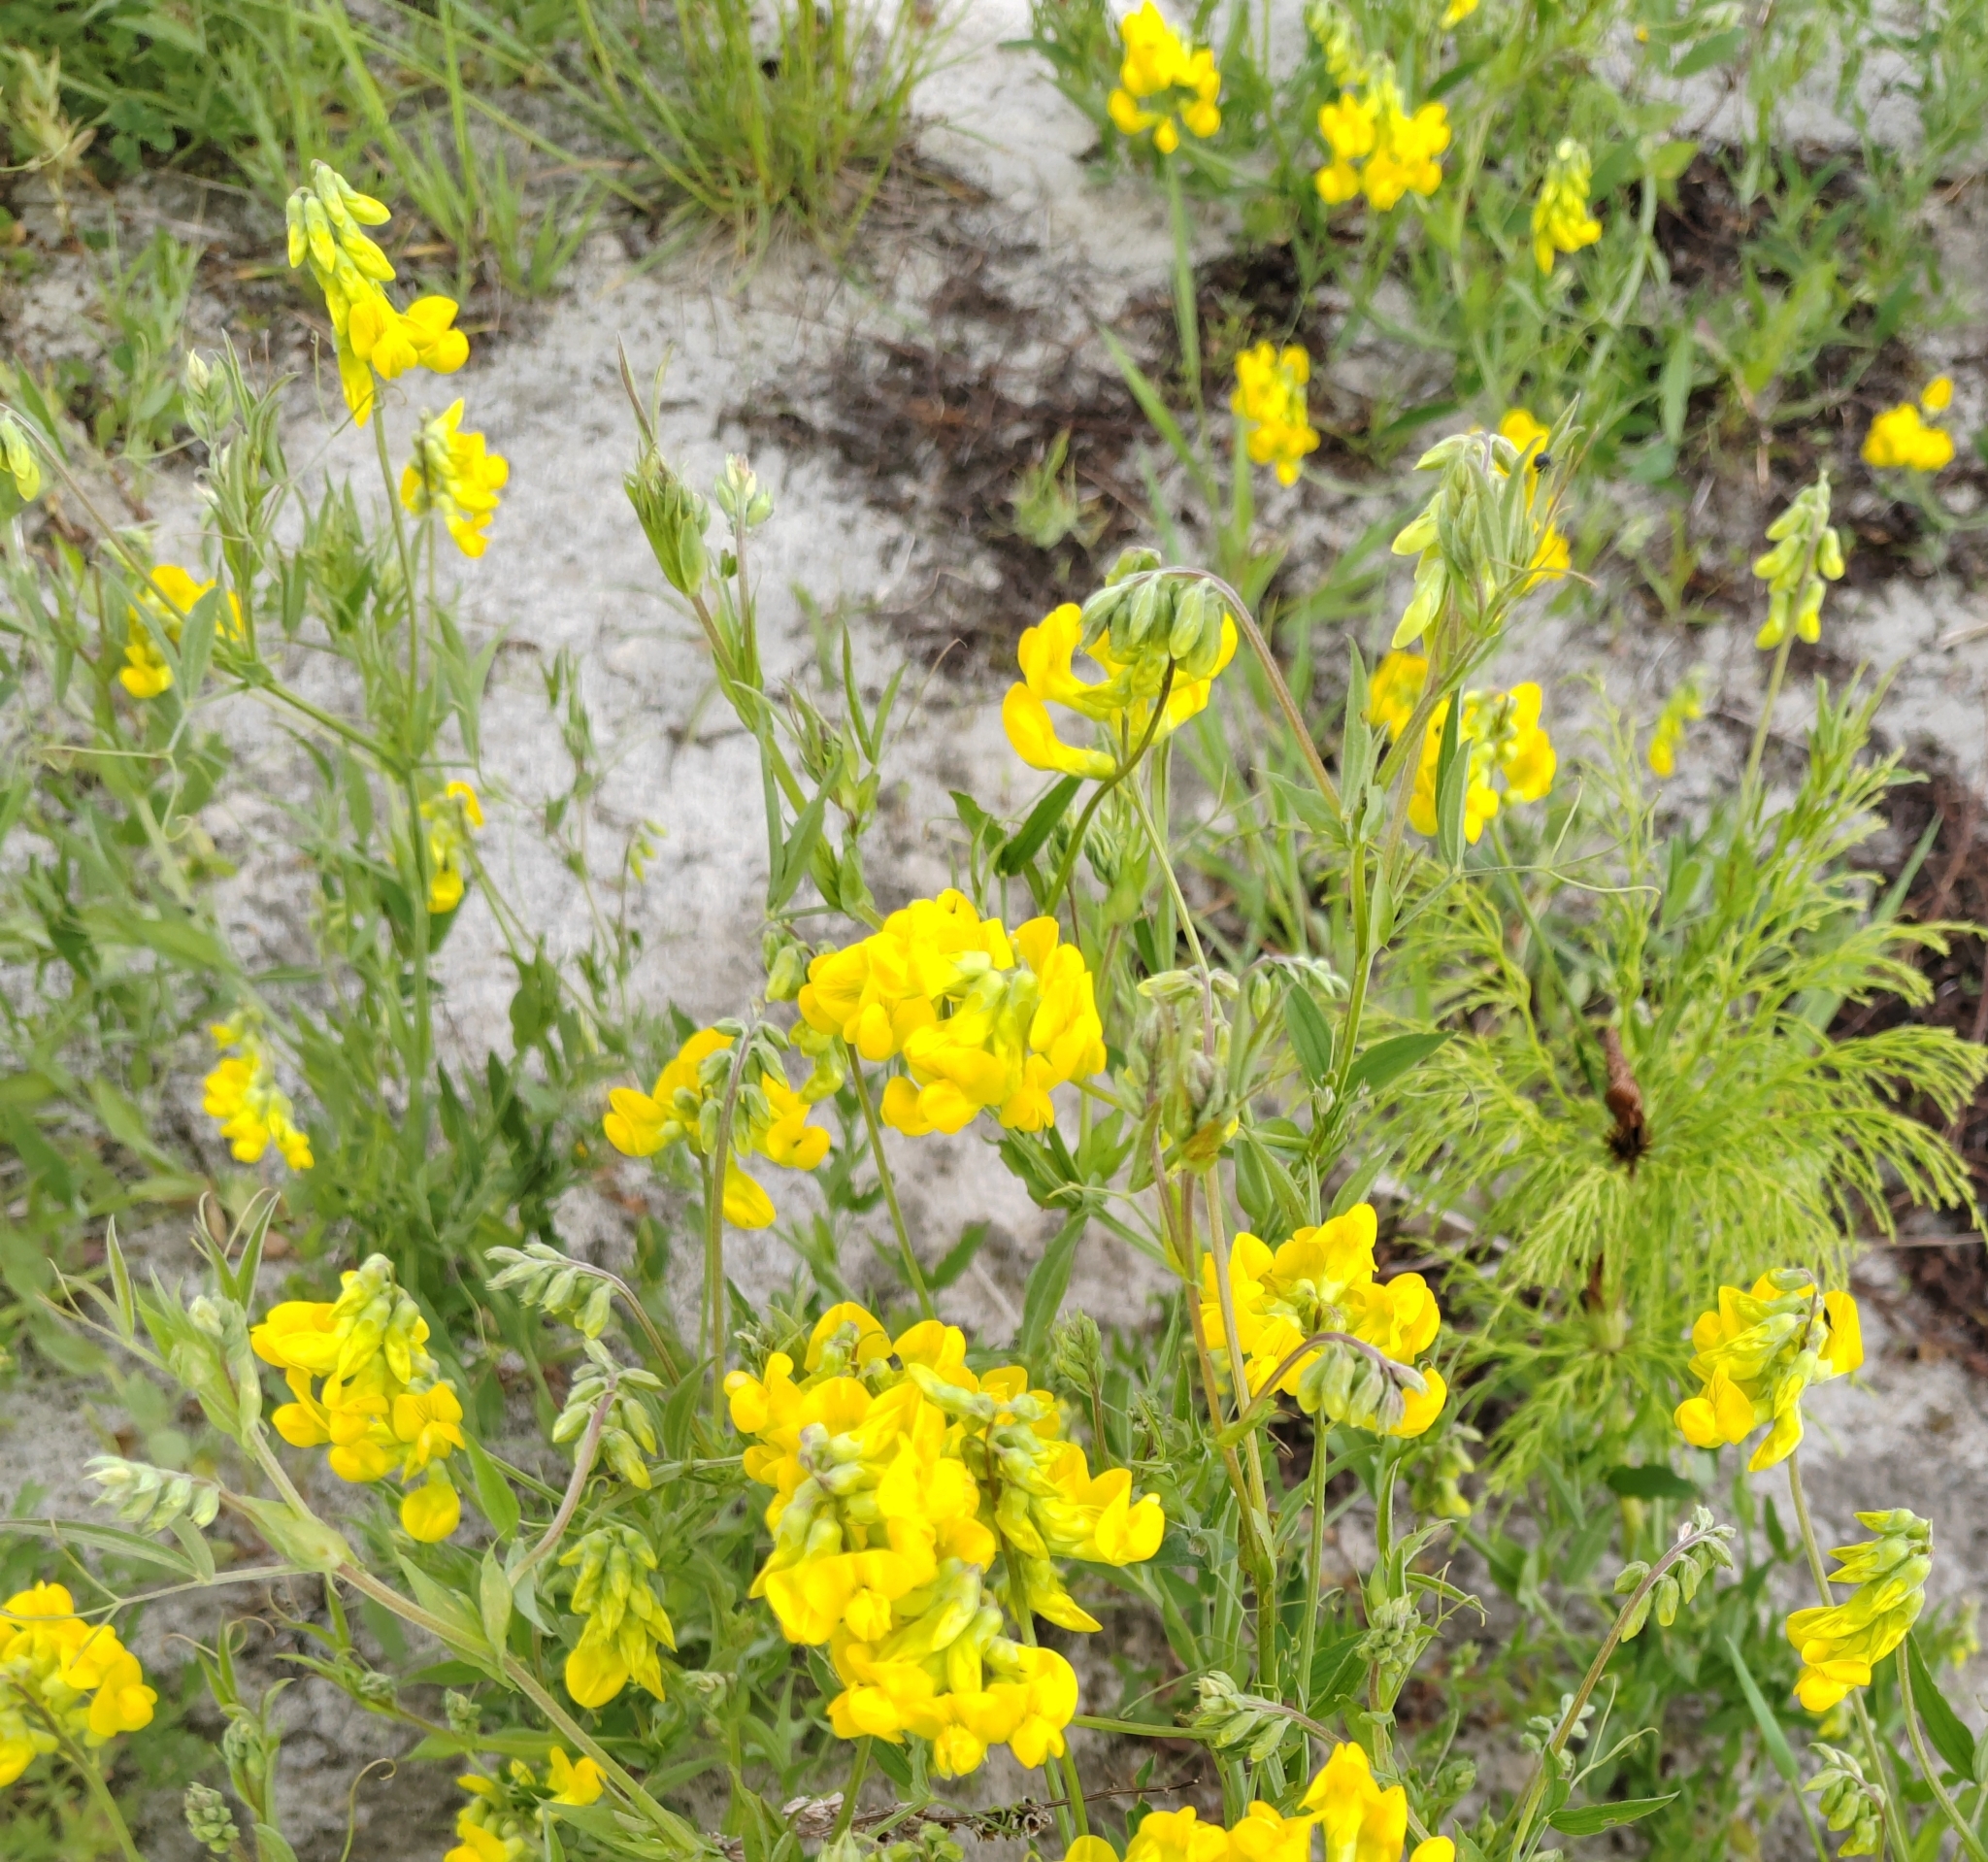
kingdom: Plantae
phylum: Tracheophyta
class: Magnoliopsida
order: Fabales
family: Fabaceae
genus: Lathyrus
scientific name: Lathyrus pratensis
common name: Meadow vetchling
